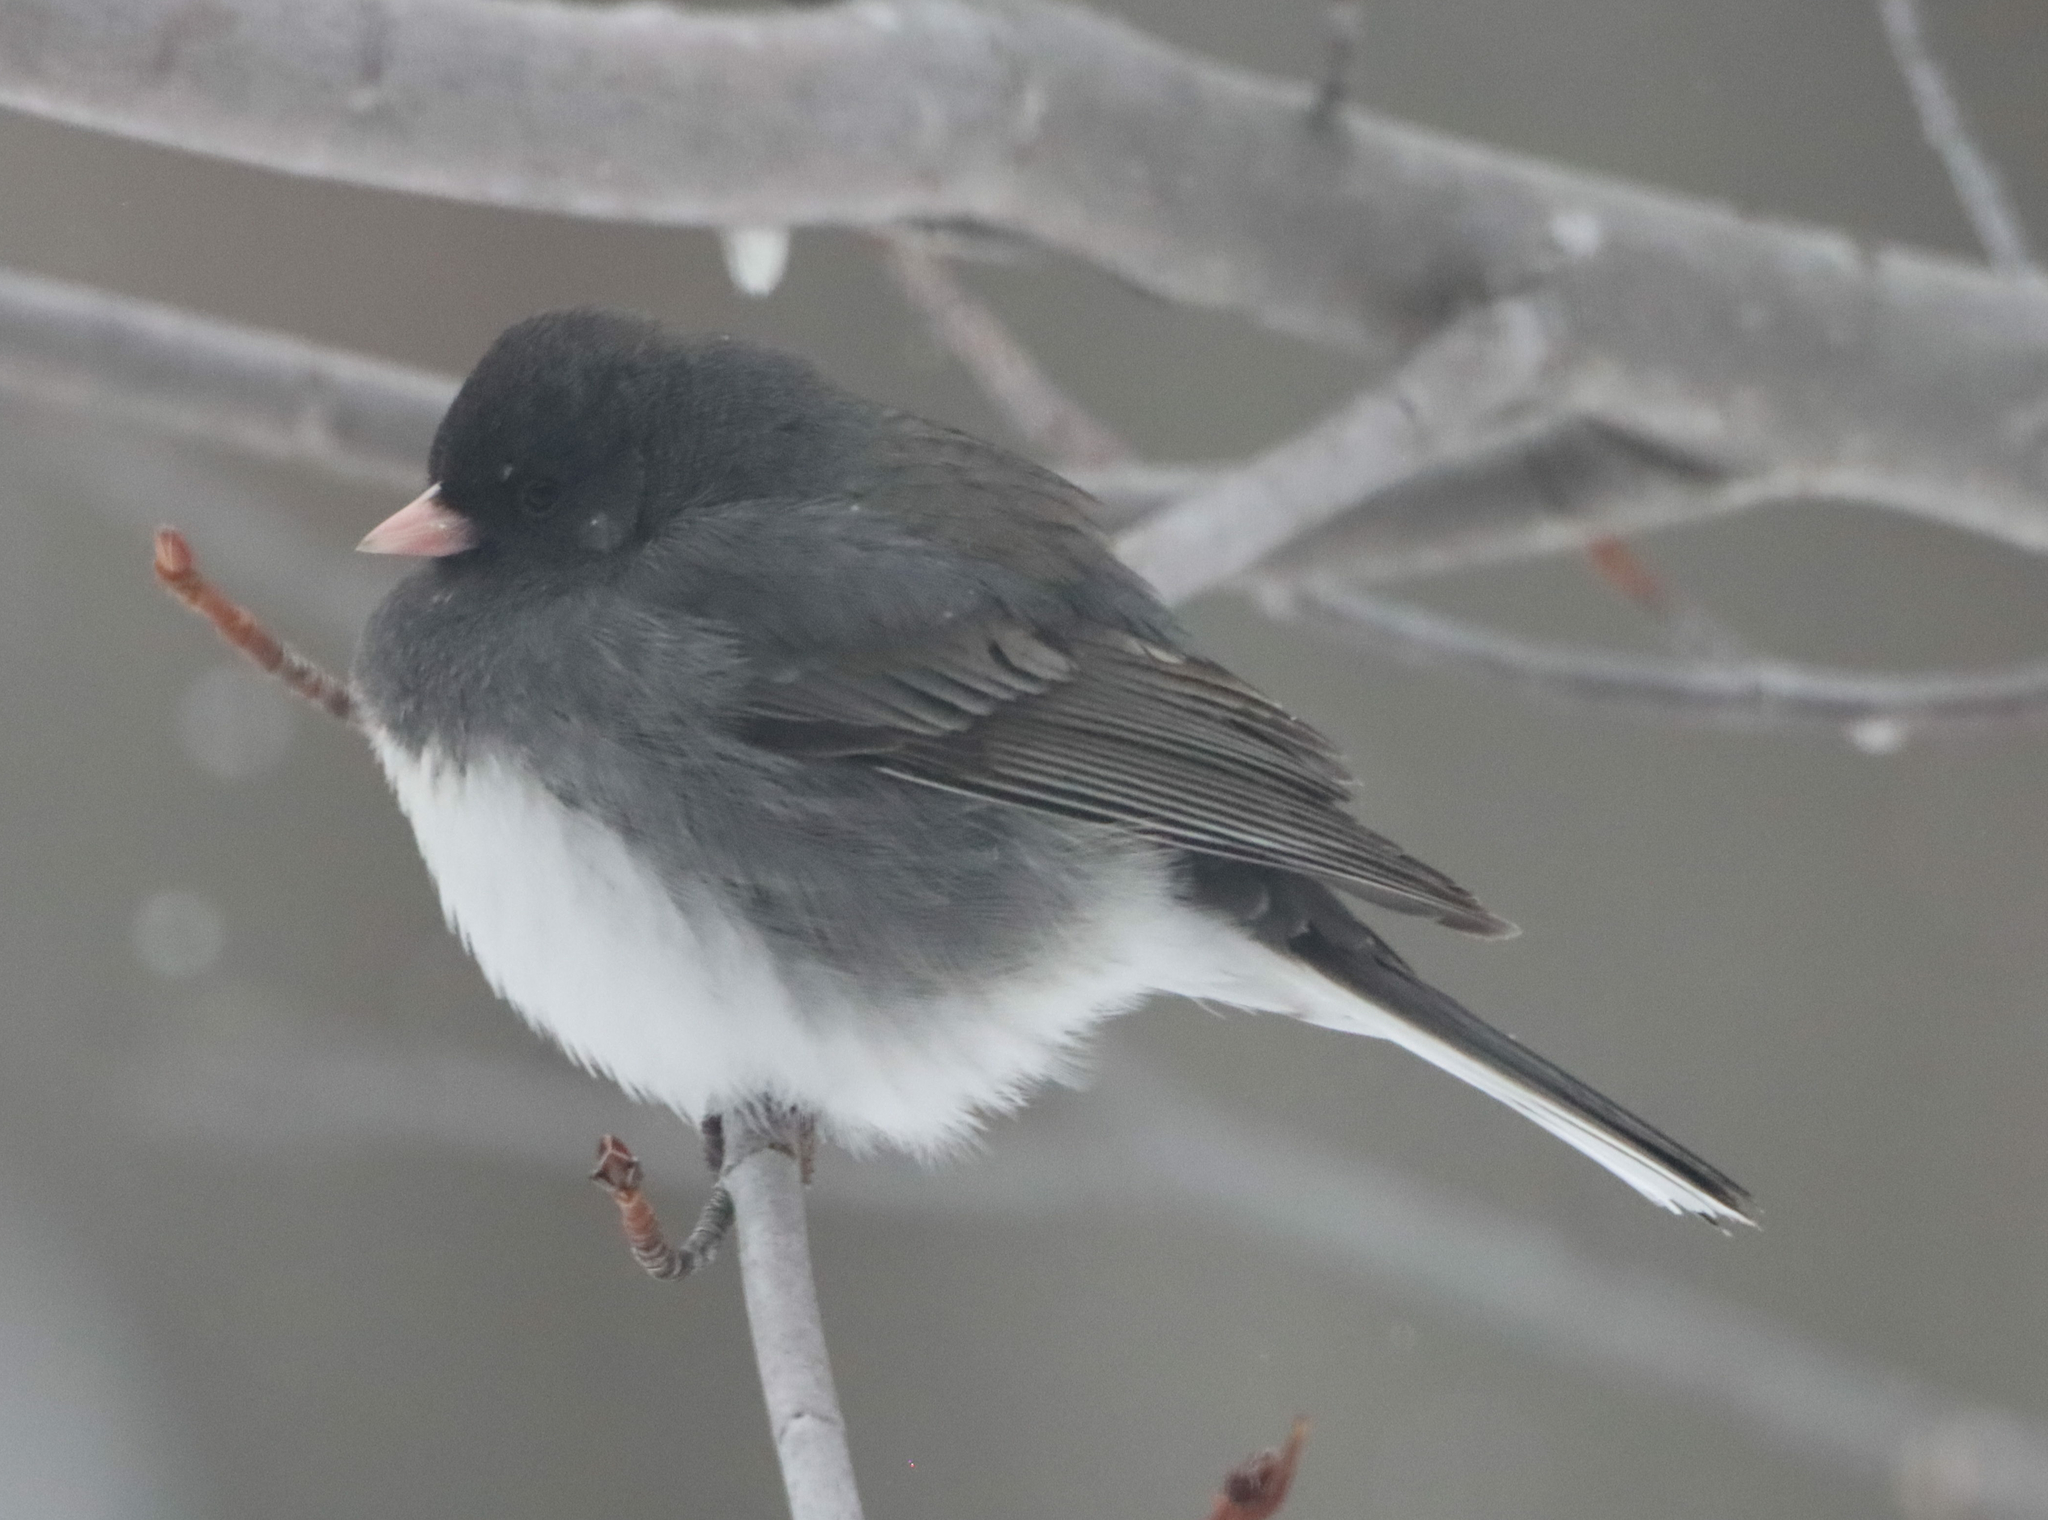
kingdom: Animalia
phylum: Chordata
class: Aves
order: Passeriformes
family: Passerellidae
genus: Junco
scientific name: Junco hyemalis
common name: Dark-eyed junco
